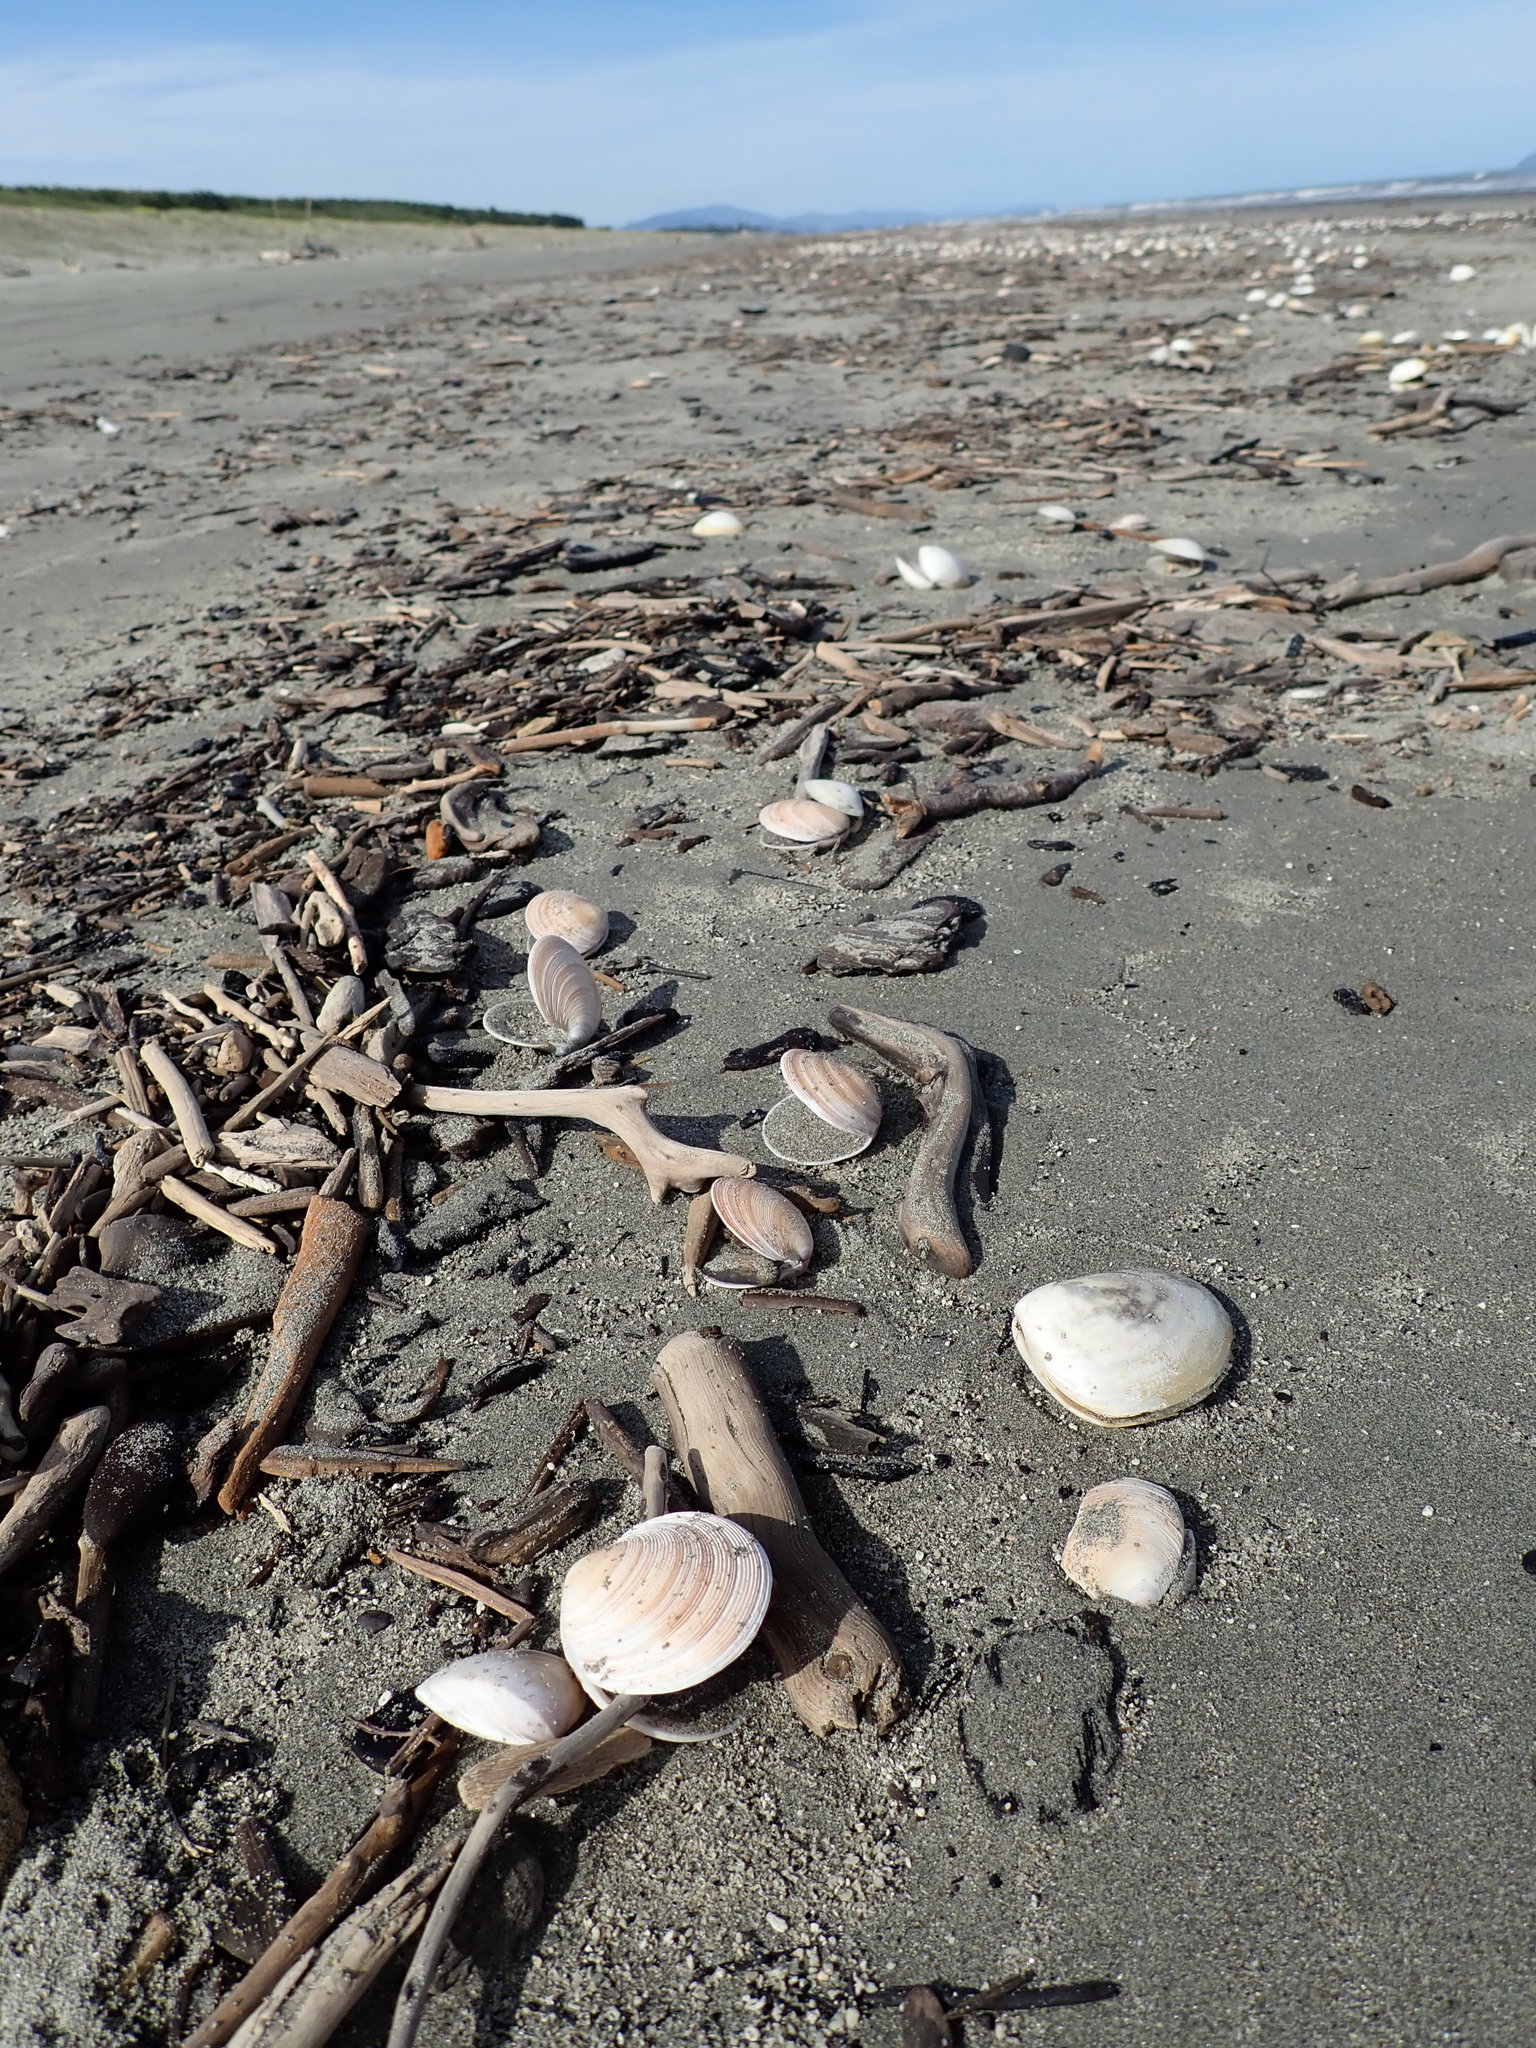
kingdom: Animalia
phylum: Mollusca
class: Bivalvia
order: Venerida
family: Veneridae
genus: Dosinia
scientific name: Dosinia anus
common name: Old-woman dosinia
